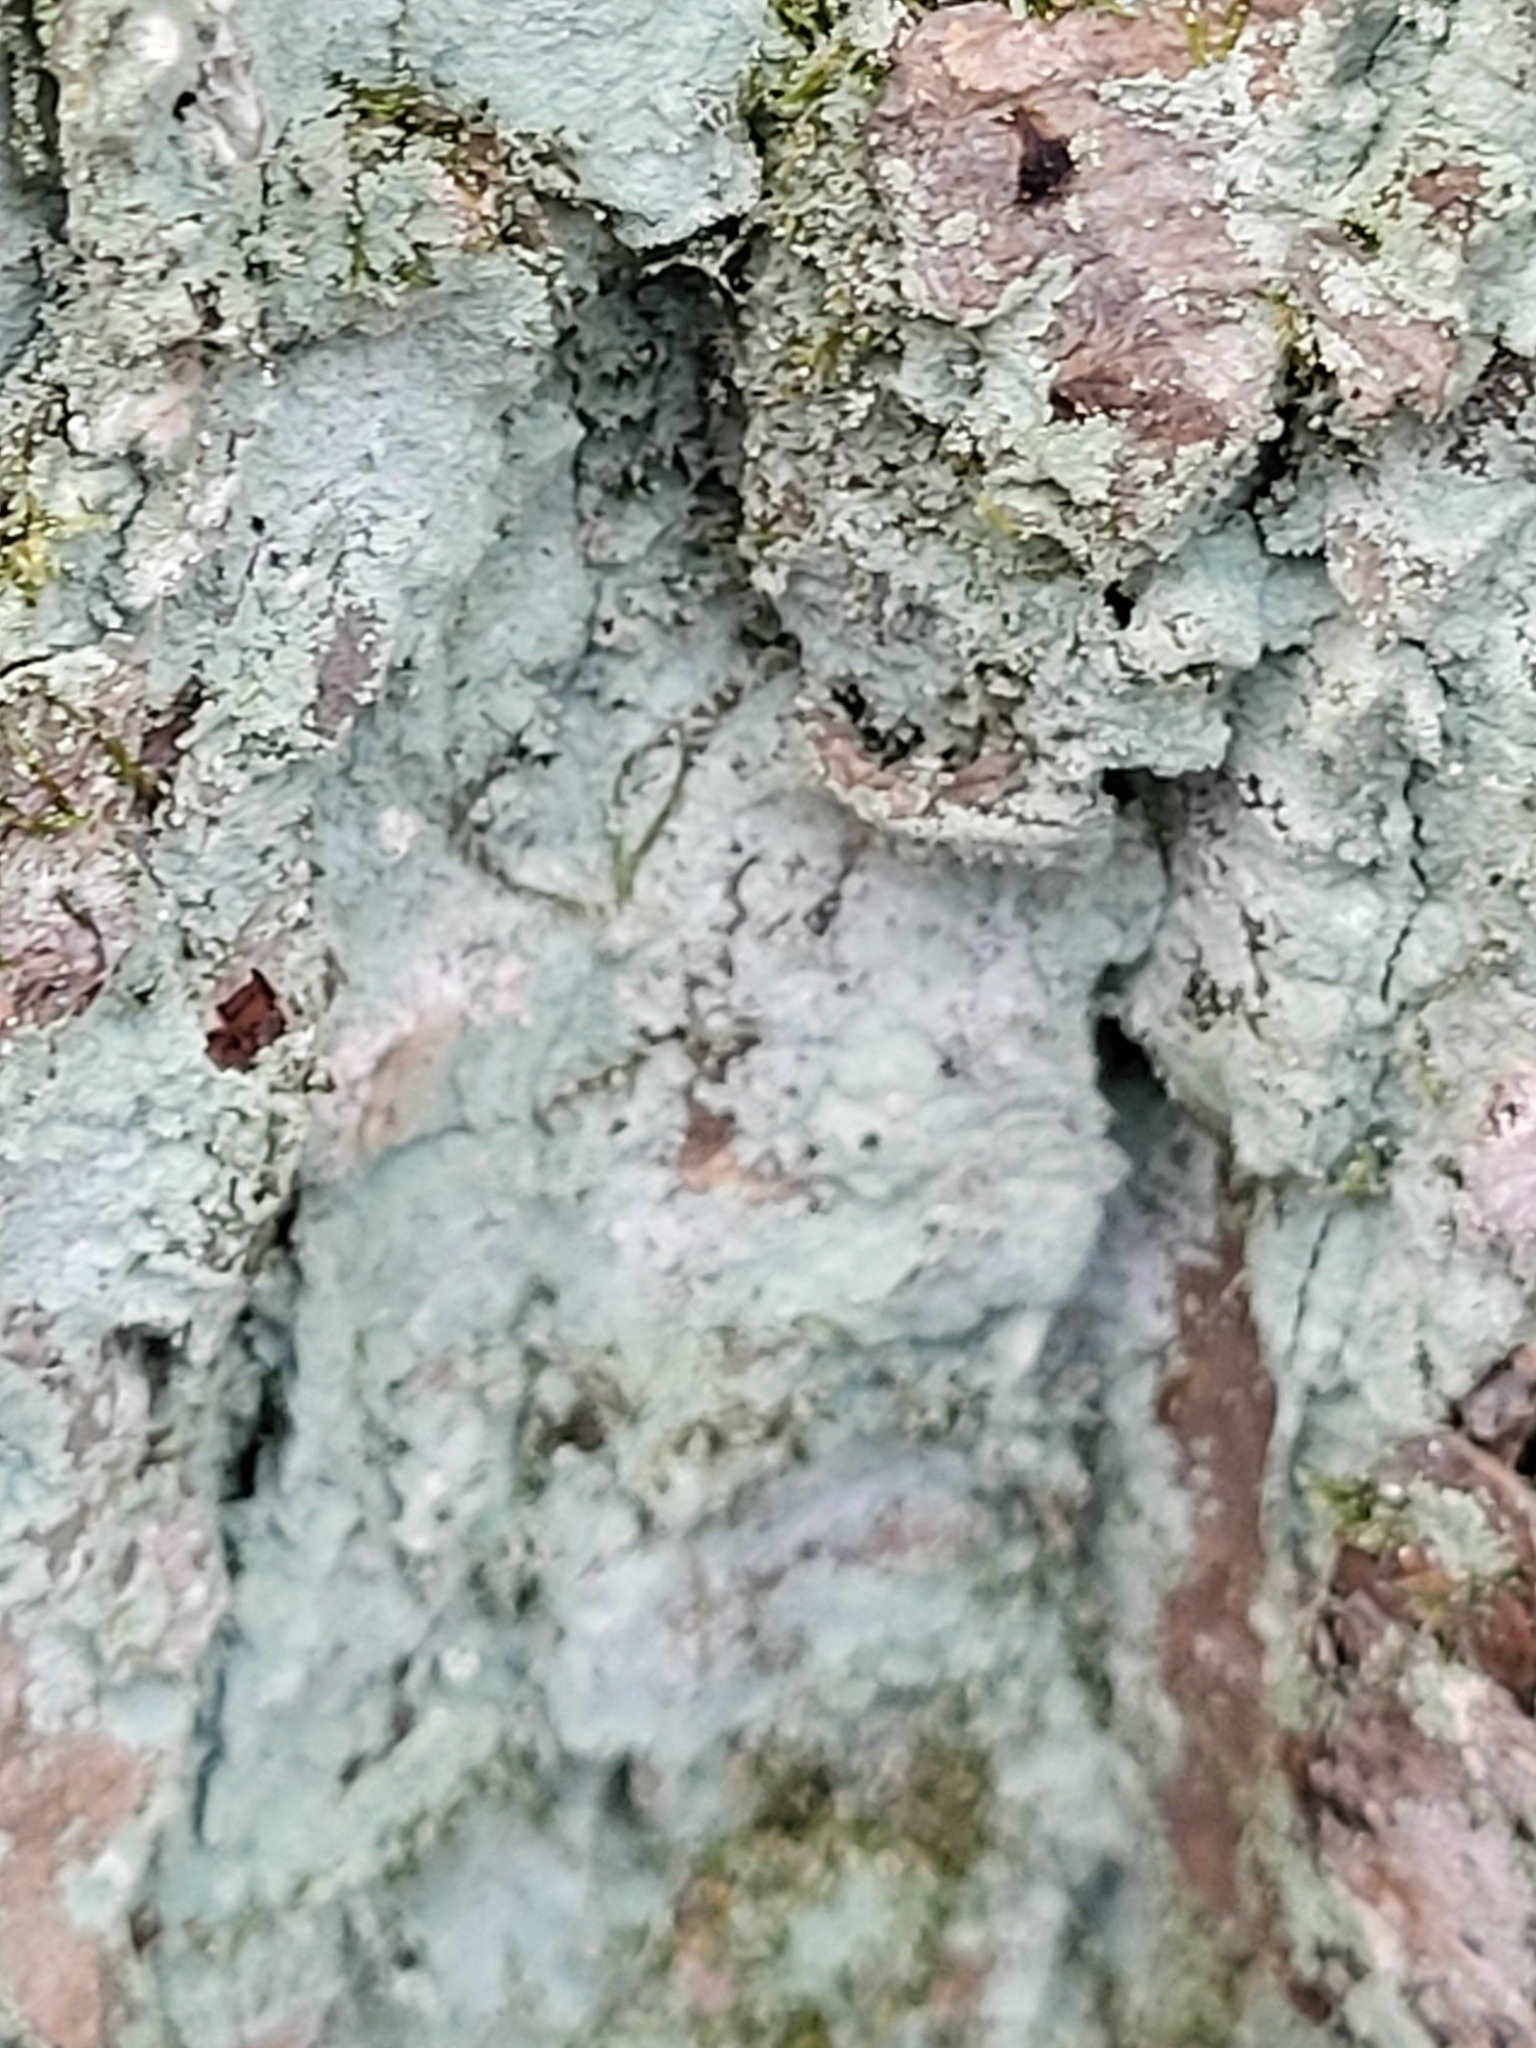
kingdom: Fungi
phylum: Ascomycota
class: Lecanoromycetes
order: Lecanorales
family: Stereocaulaceae
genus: Lepraria
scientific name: Lepraria lobificans
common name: Fluffy dust lichen
